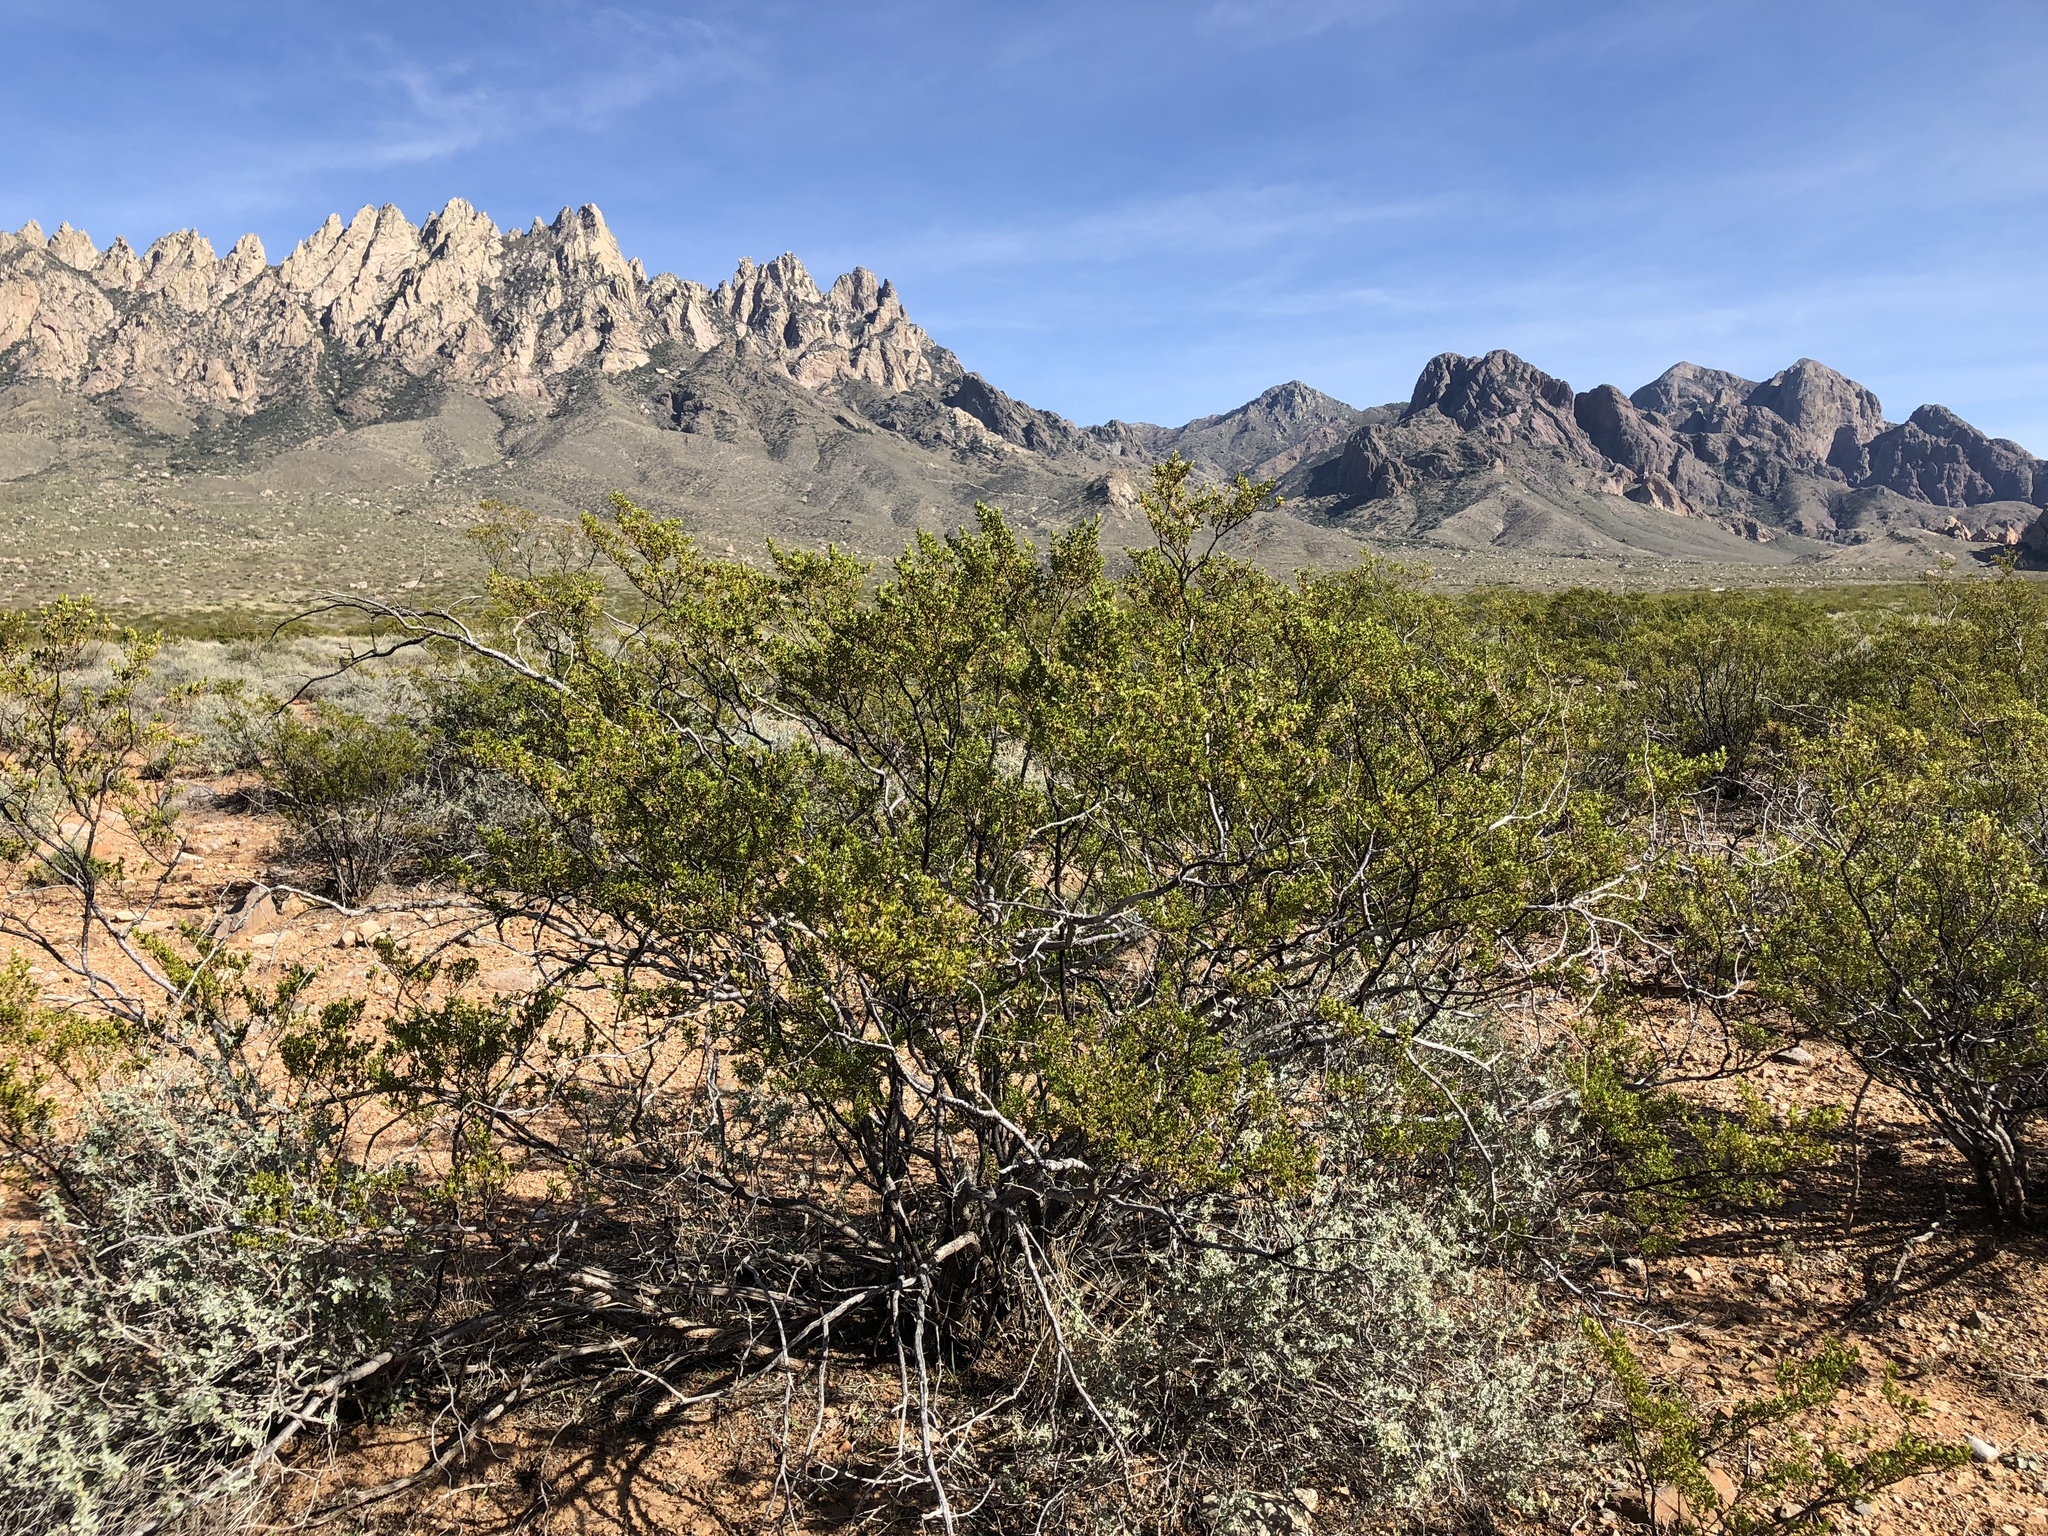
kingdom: Plantae
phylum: Tracheophyta
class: Magnoliopsida
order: Zygophyllales
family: Zygophyllaceae
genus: Larrea
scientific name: Larrea tridentata
